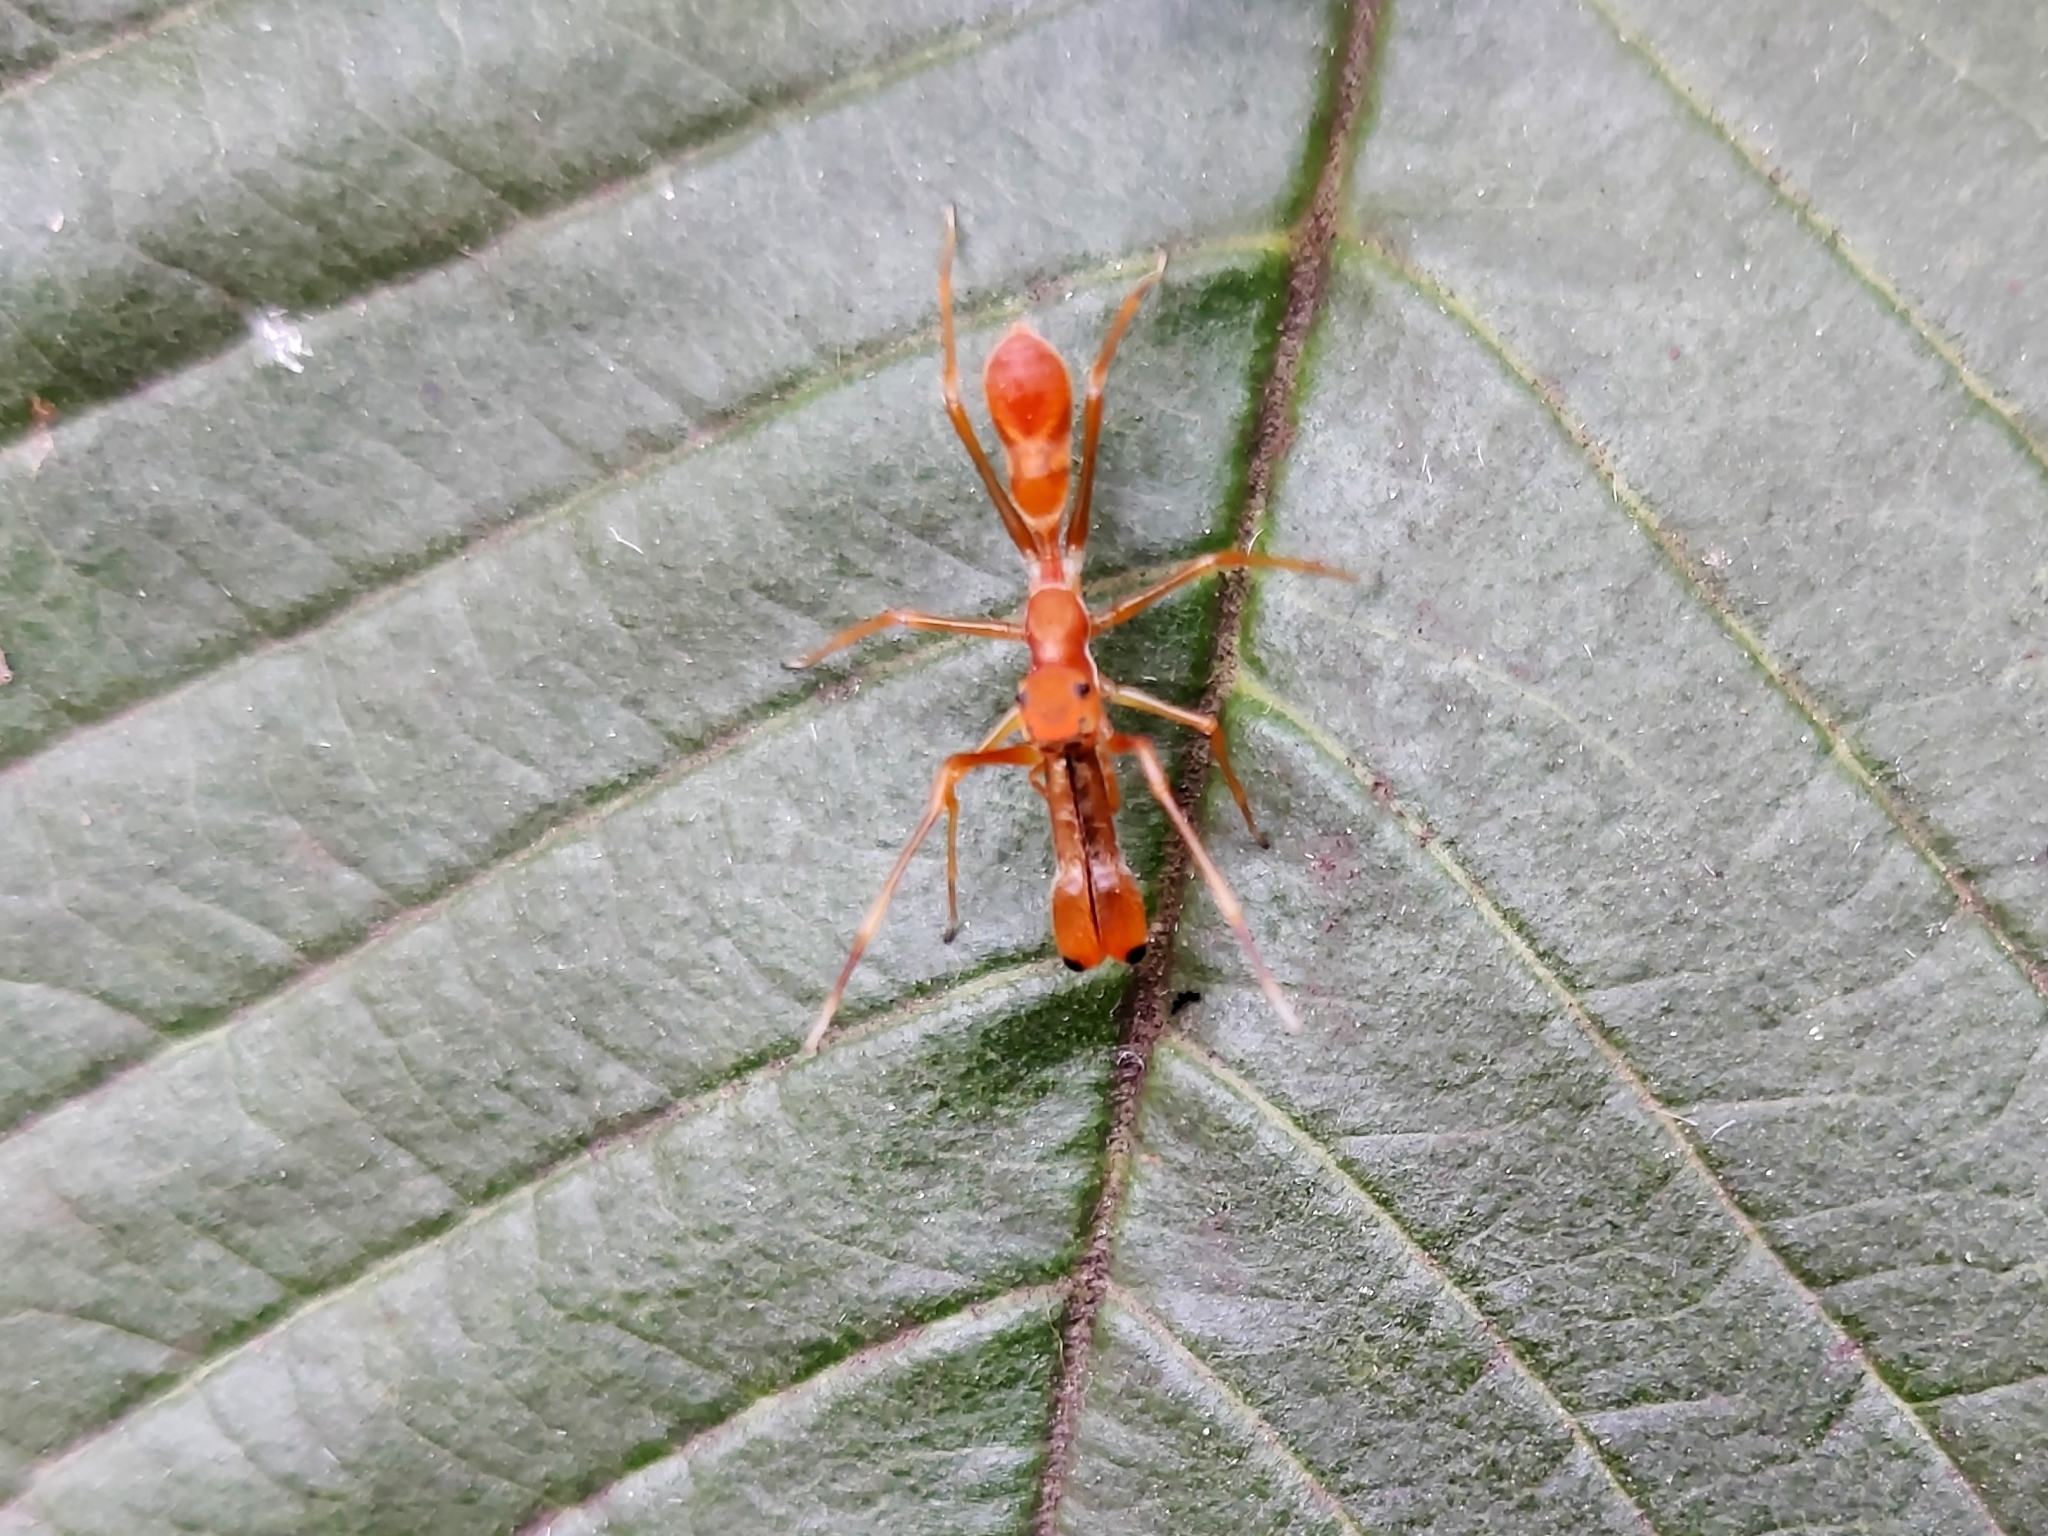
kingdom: Animalia
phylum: Arthropoda
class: Arachnida
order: Araneae
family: Salticidae
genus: Myrmaplata
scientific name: Myrmaplata plataleoides
